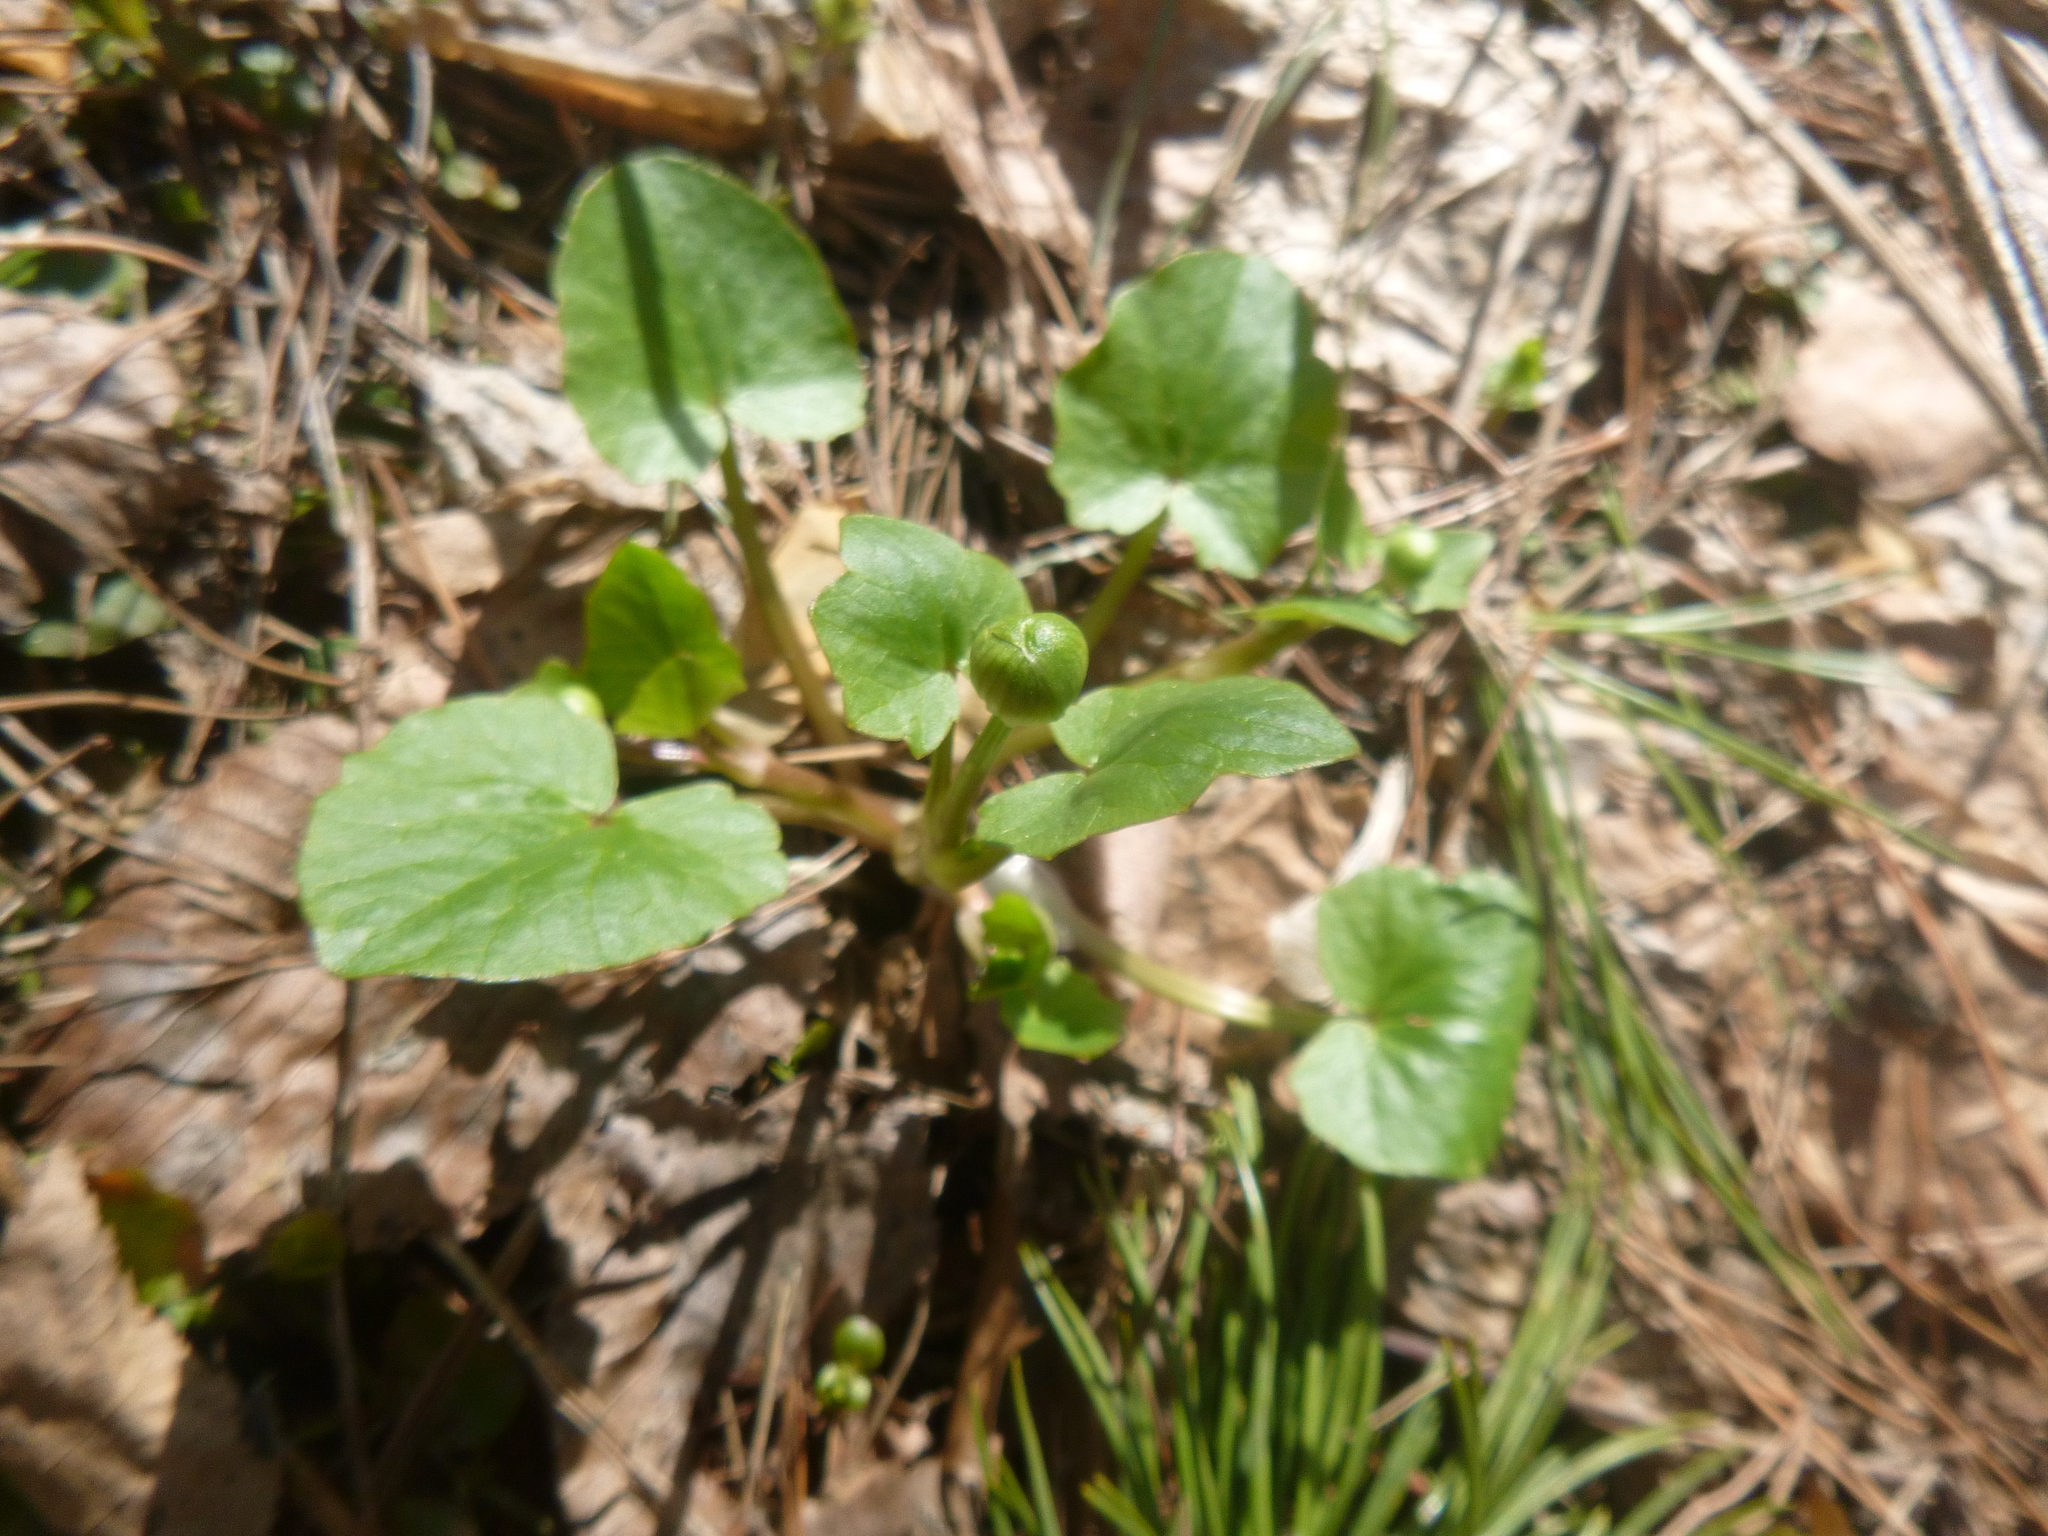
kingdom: Plantae
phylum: Tracheophyta
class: Magnoliopsida
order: Ranunculales
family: Ranunculaceae
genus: Ficaria
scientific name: Ficaria verna
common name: Lesser celandine
